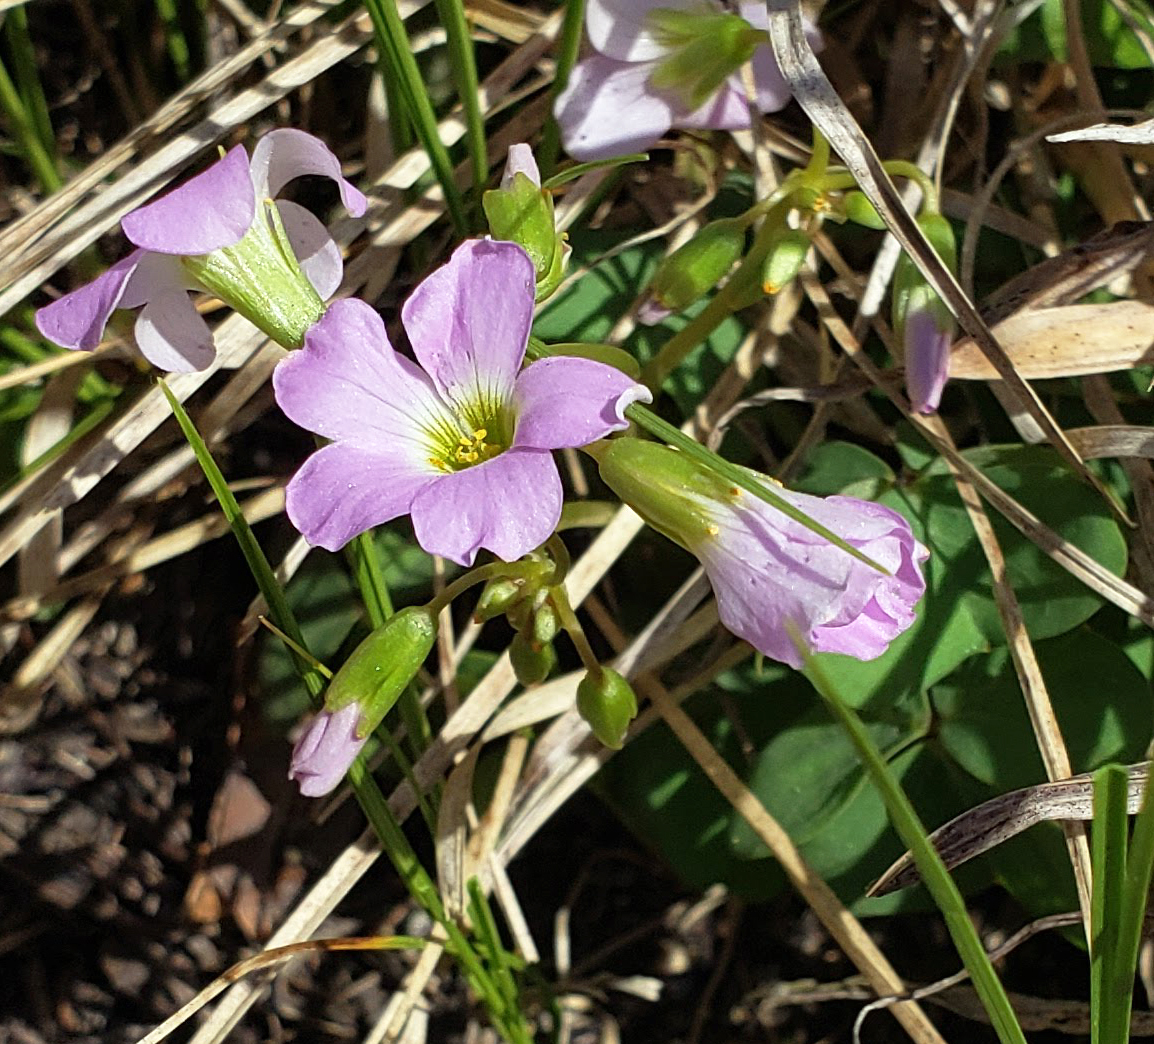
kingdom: Plantae
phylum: Tracheophyta
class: Magnoliopsida
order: Oxalidales
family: Oxalidaceae
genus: Oxalis
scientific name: Oxalis violacea
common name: Violet wood-sorrel
